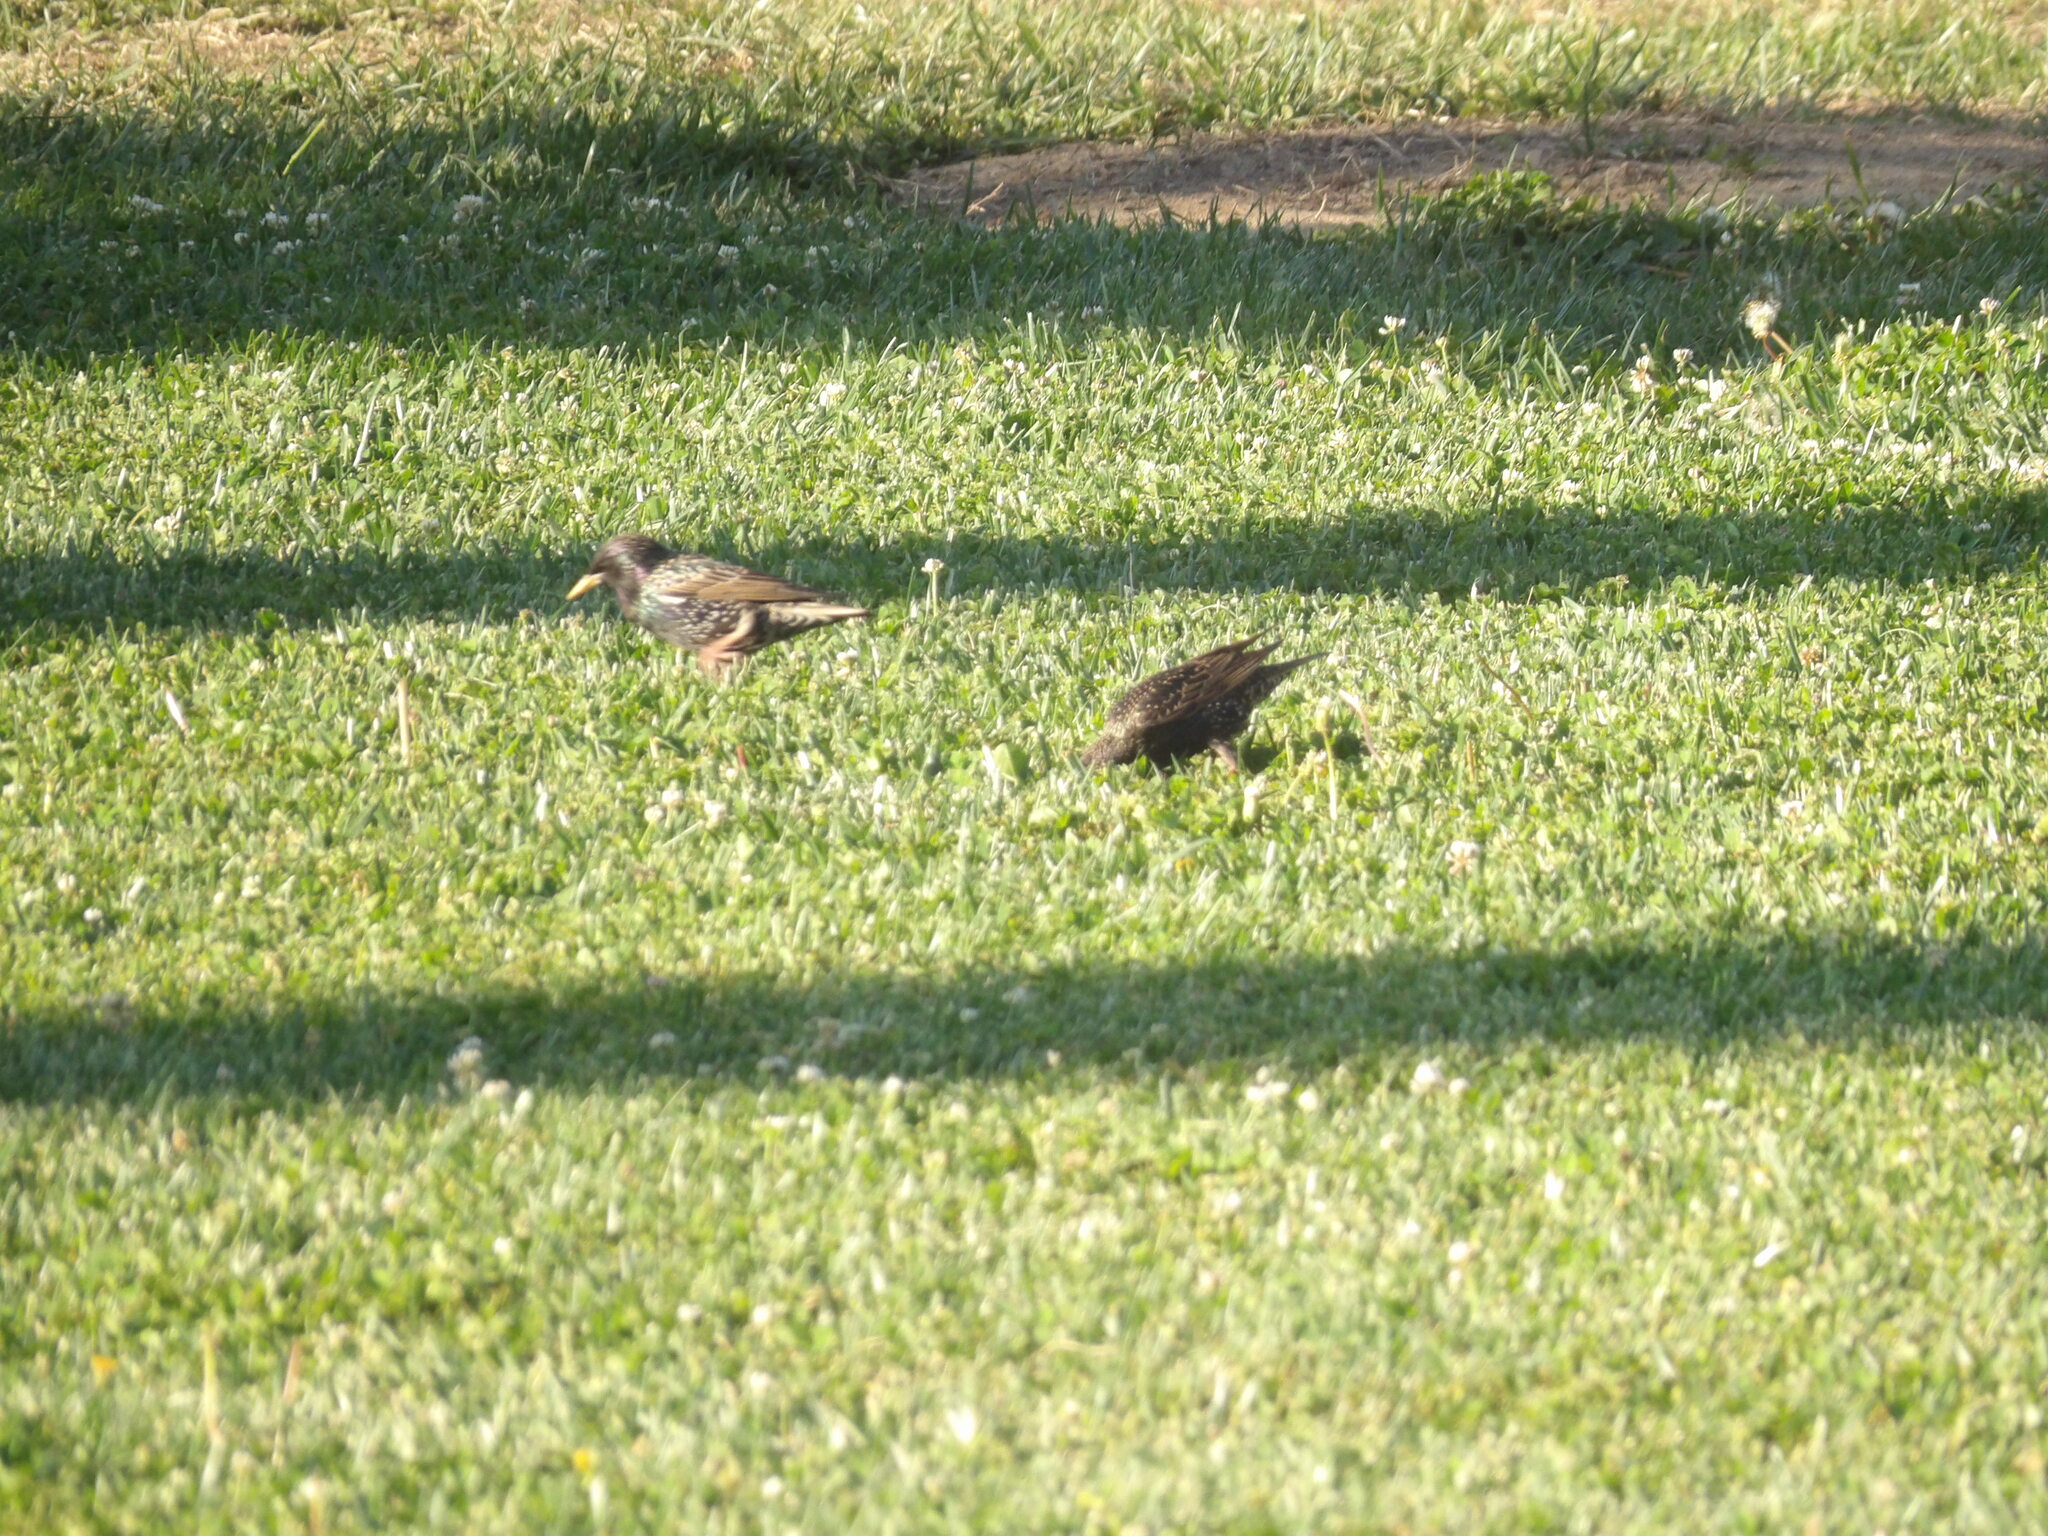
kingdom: Animalia
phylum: Chordata
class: Aves
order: Passeriformes
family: Sturnidae
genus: Sturnus
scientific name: Sturnus vulgaris
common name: Common starling
